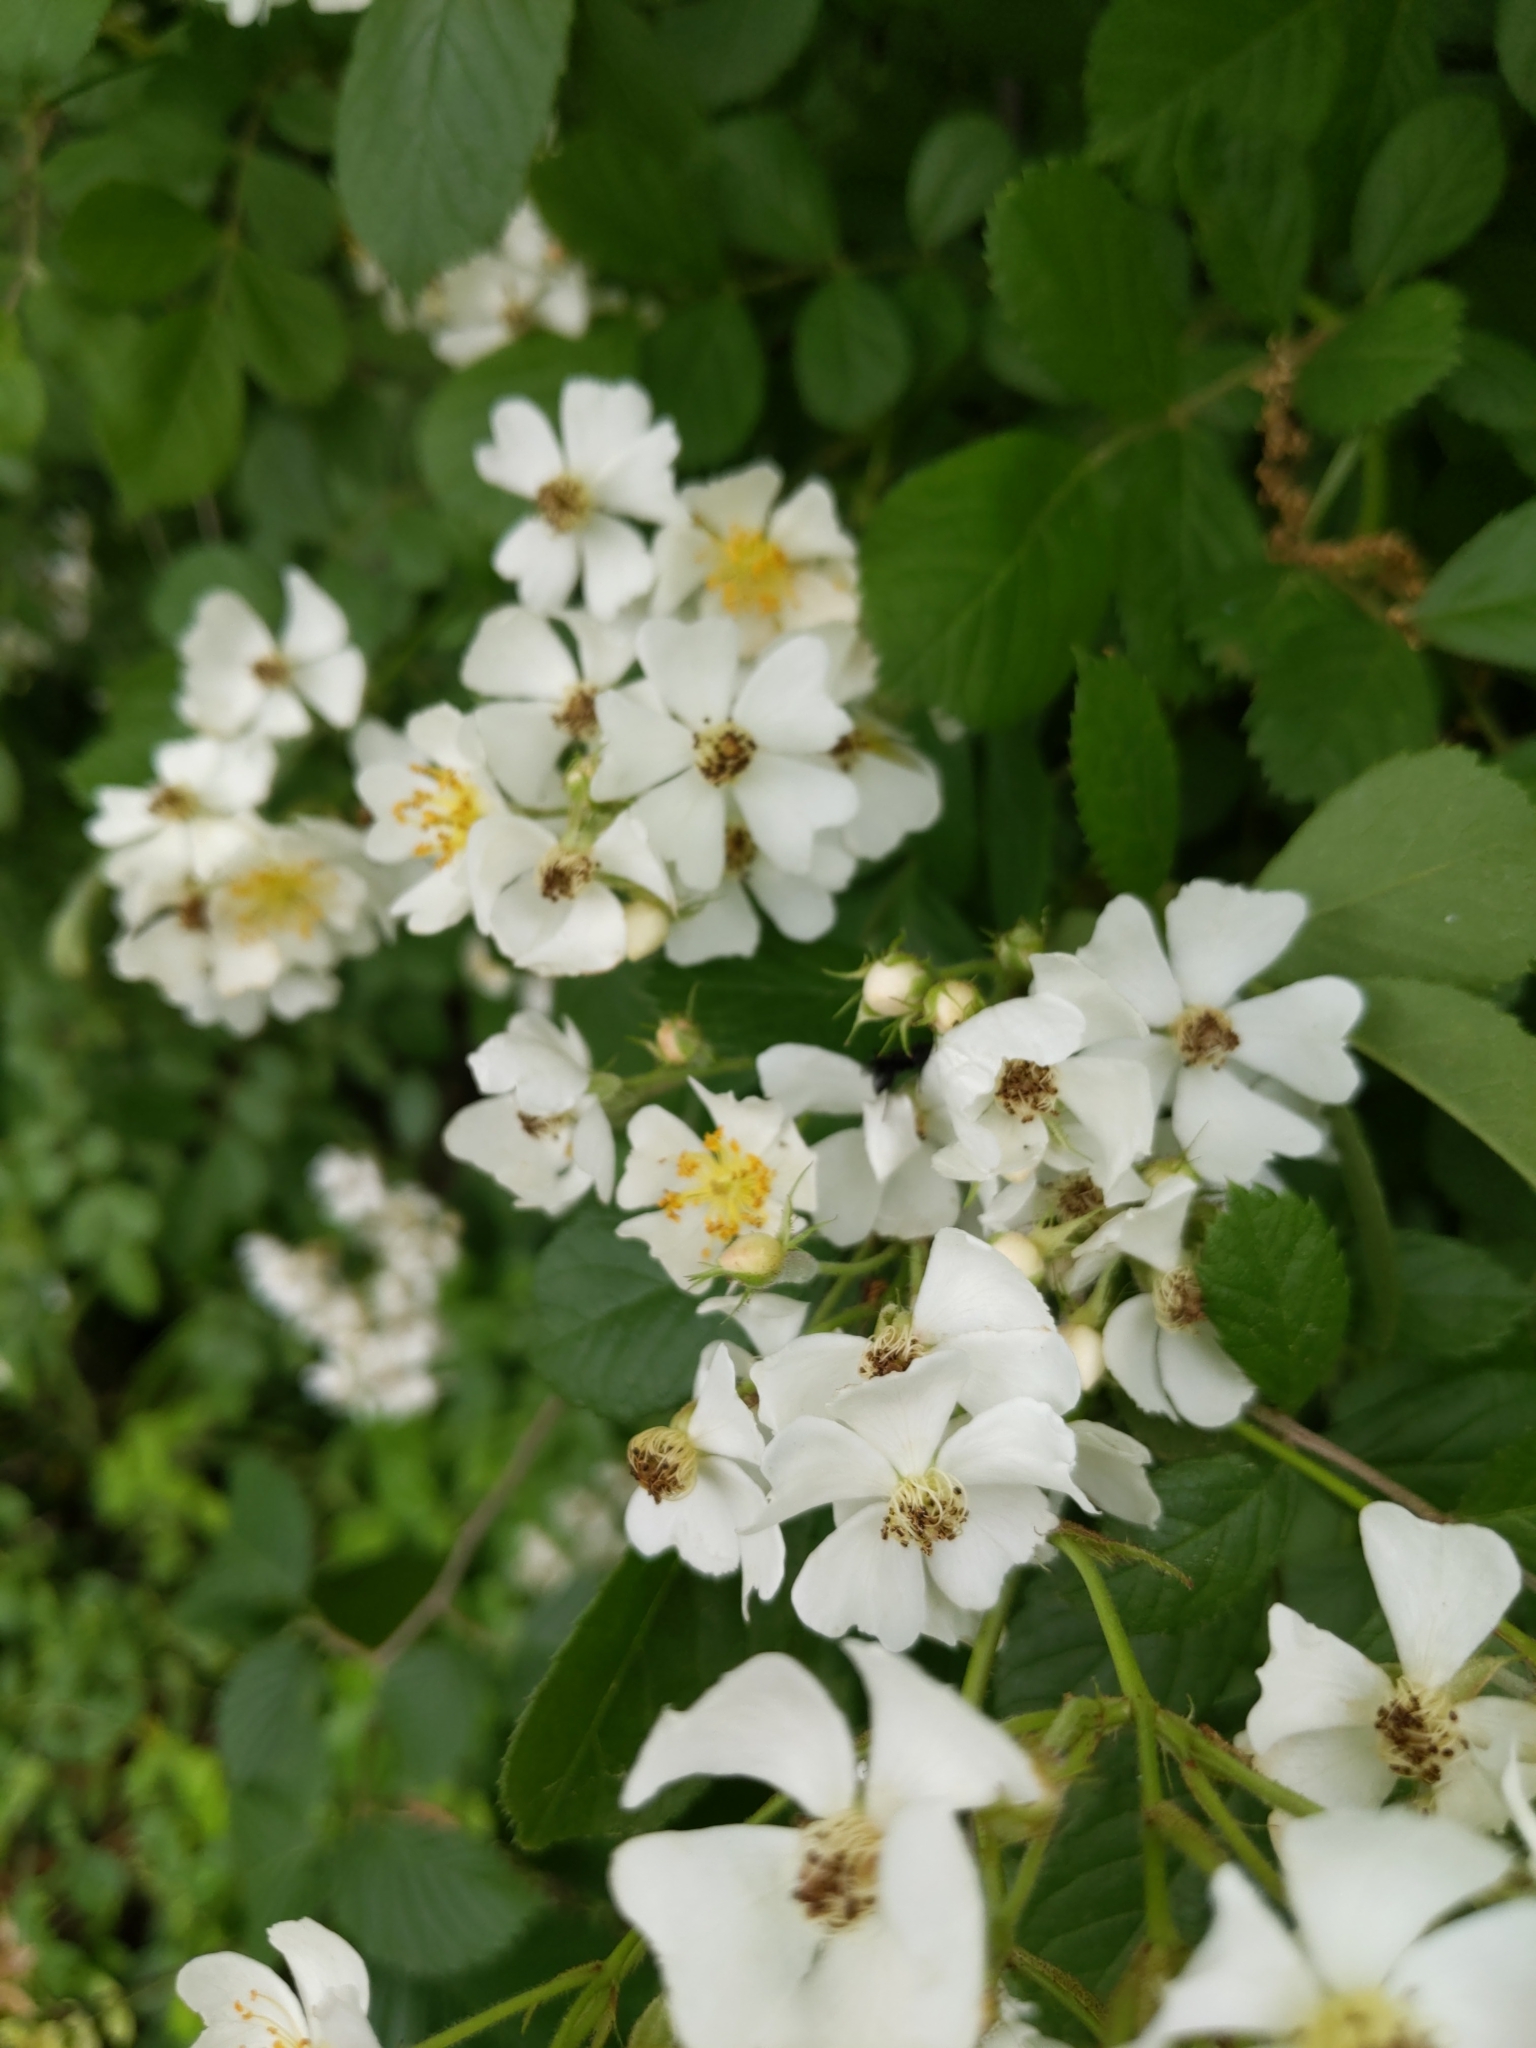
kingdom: Plantae
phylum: Tracheophyta
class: Magnoliopsida
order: Rosales
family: Rosaceae
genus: Rosa
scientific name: Rosa multiflora
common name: Multiflora rose
